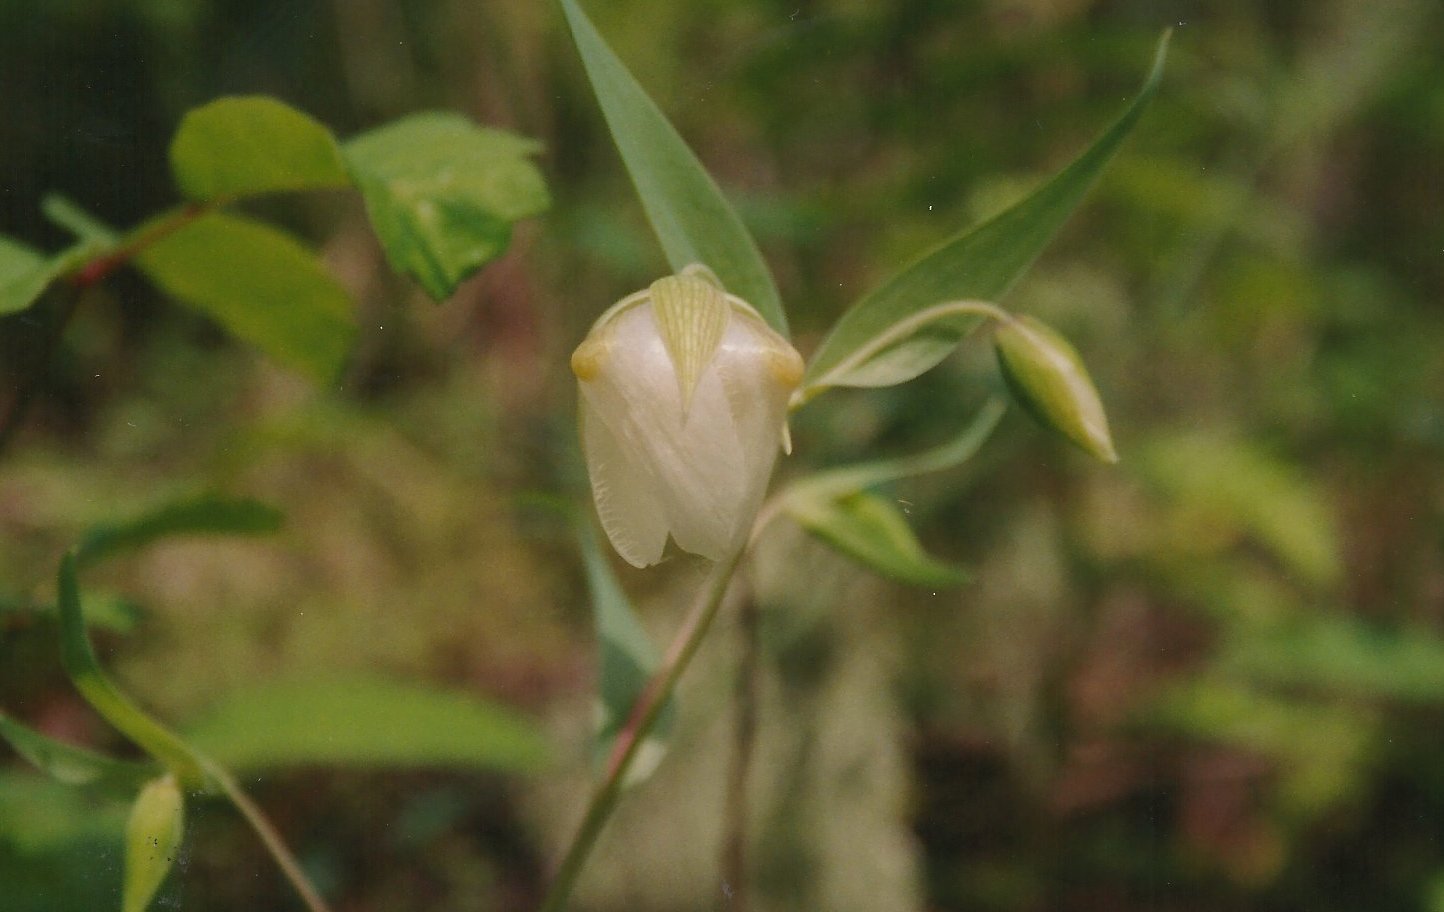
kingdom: Plantae
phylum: Tracheophyta
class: Liliopsida
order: Liliales
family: Liliaceae
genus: Calochortus
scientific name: Calochortus albus
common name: Fairy-lantern
